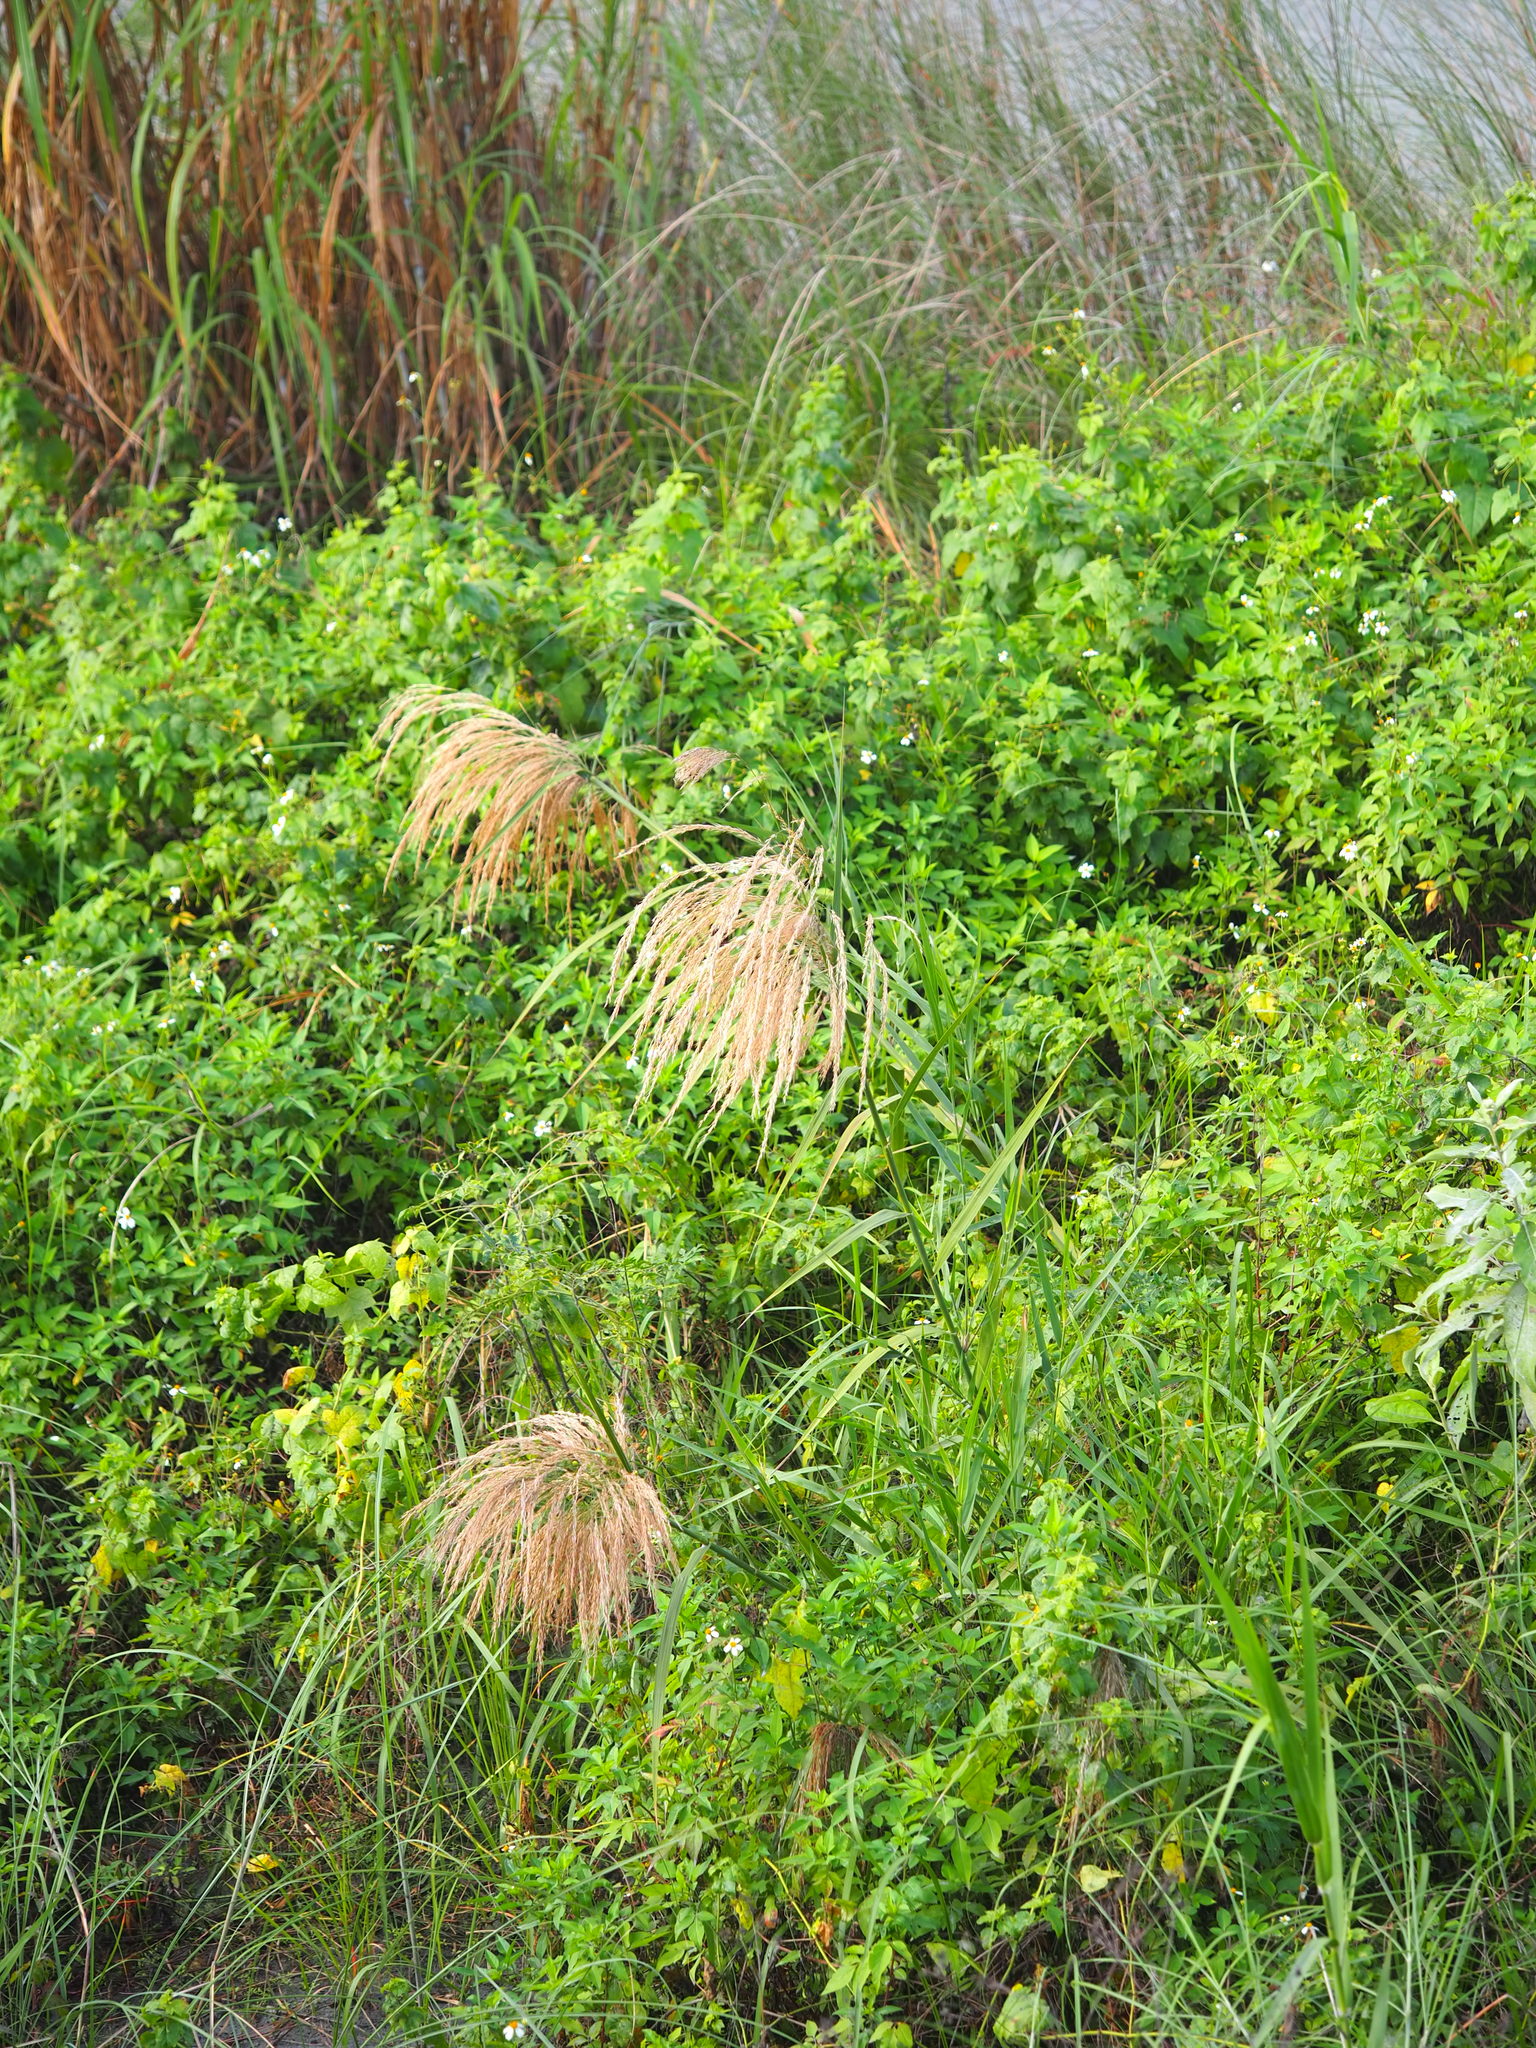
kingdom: Plantae
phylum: Tracheophyta
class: Liliopsida
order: Poales
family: Poaceae
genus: Phragmites
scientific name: Phragmites karka
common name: Tropical reed
